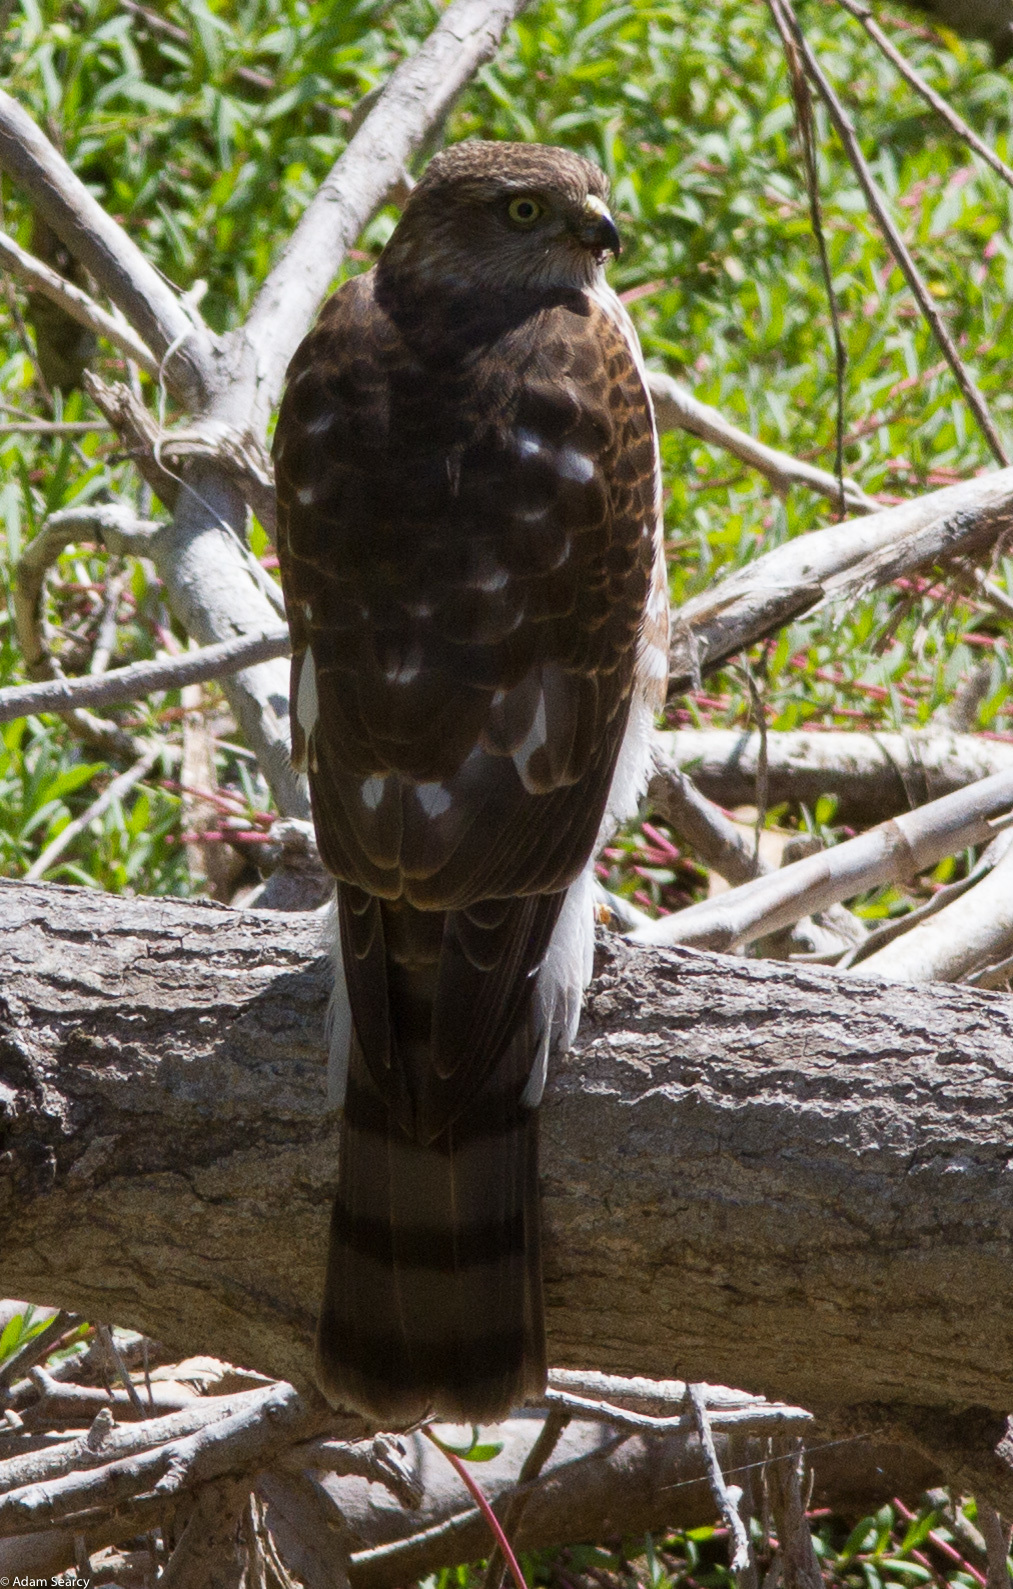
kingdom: Animalia
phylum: Chordata
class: Aves
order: Accipitriformes
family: Accipitridae
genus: Accipiter
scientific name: Accipiter striatus
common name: Sharp-shinned hawk
